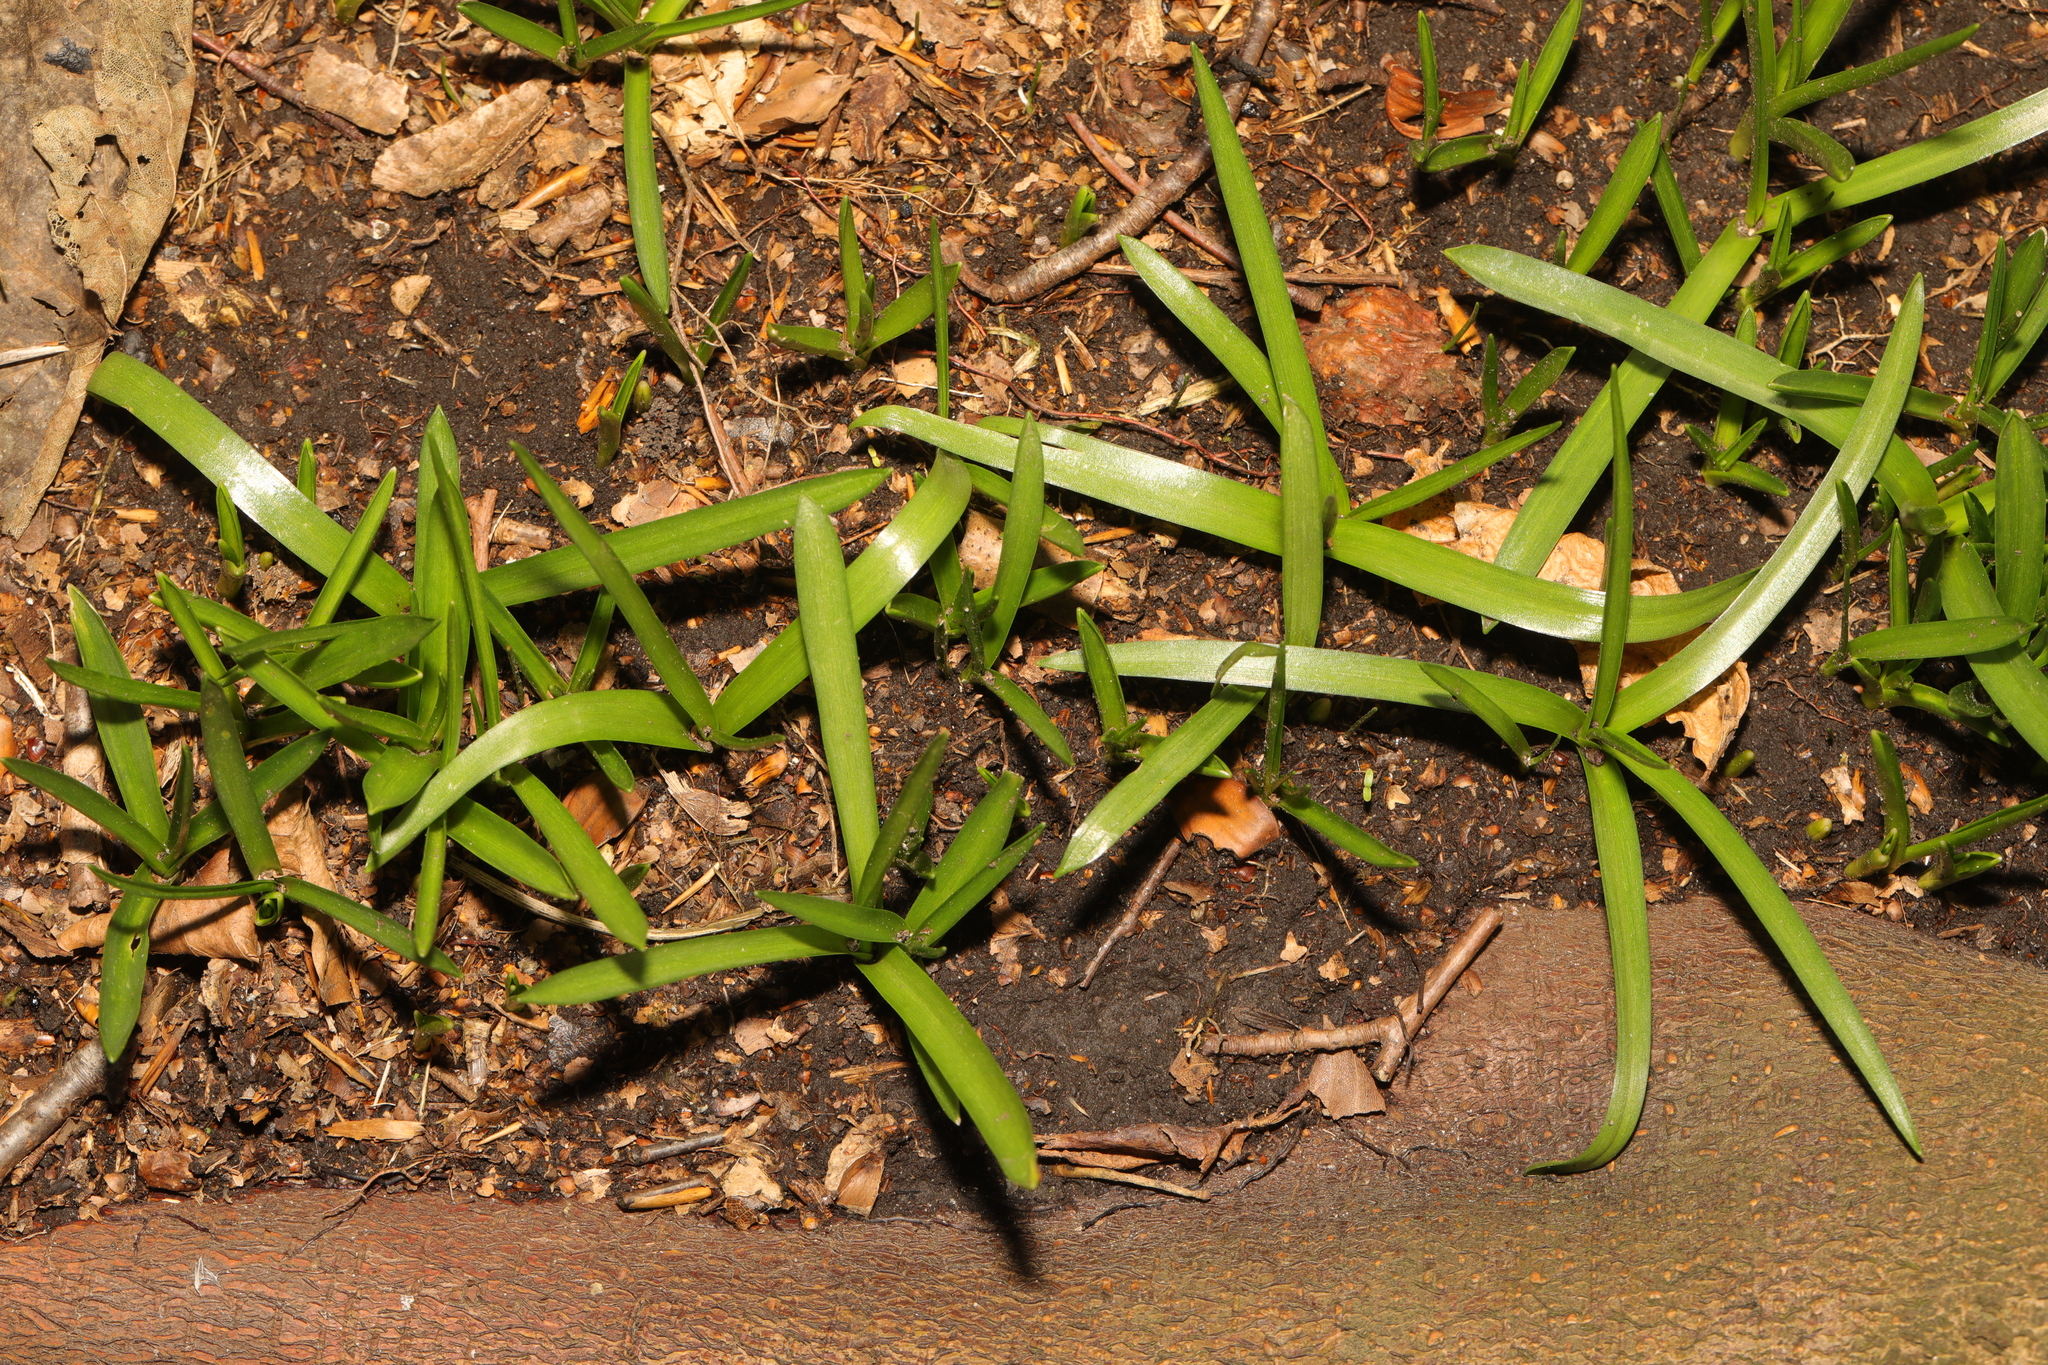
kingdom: Plantae
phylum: Tracheophyta
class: Liliopsida
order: Asparagales
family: Asparagaceae
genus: Hyacinthoides
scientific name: Hyacinthoides non-scripta
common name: Bluebell
